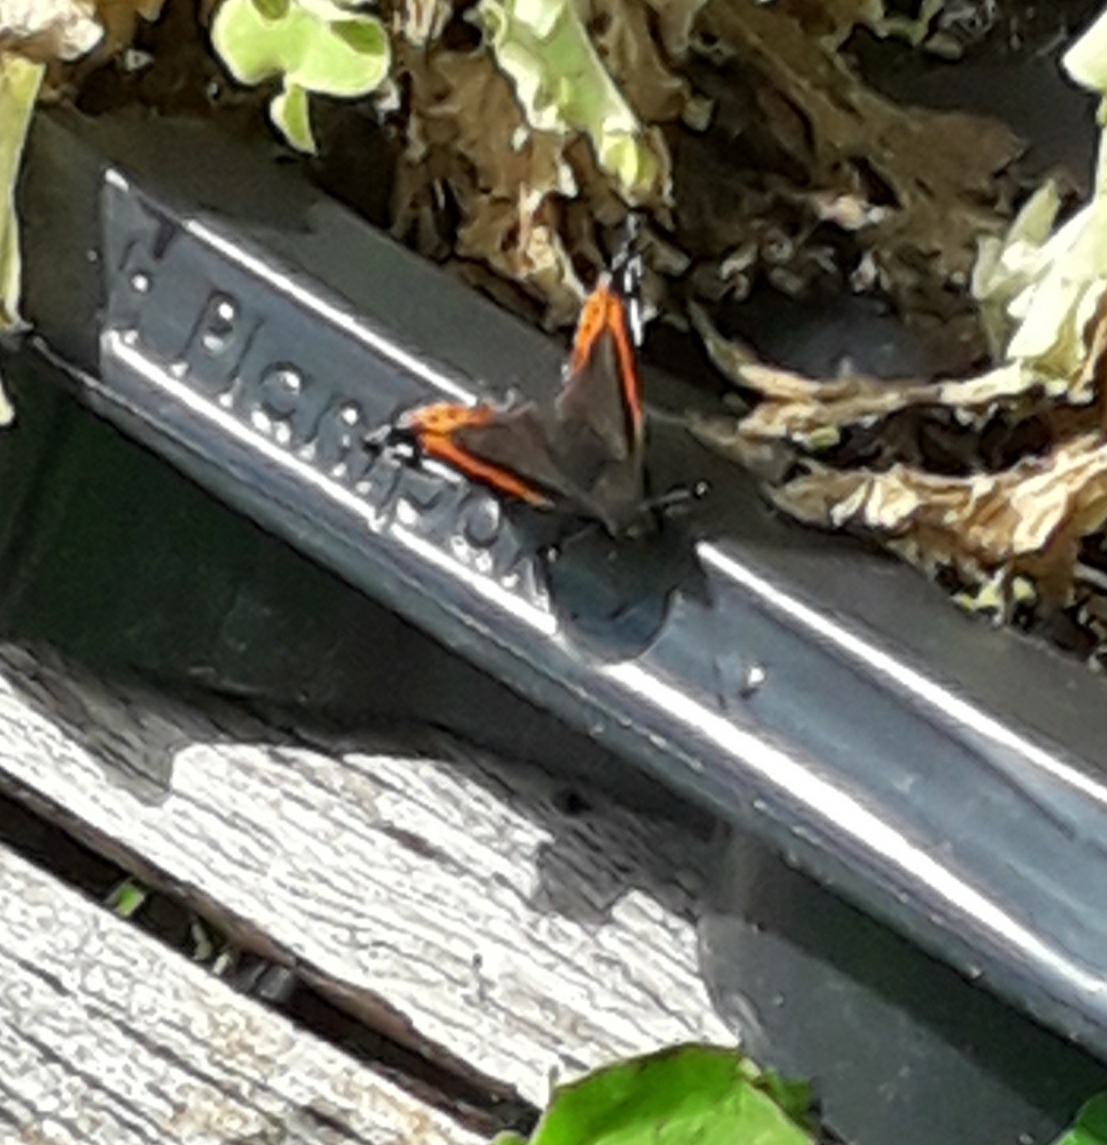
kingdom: Animalia
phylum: Arthropoda
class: Insecta
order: Lepidoptera
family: Nymphalidae
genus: Vanessa
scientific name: Vanessa atalanta
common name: Red admiral
